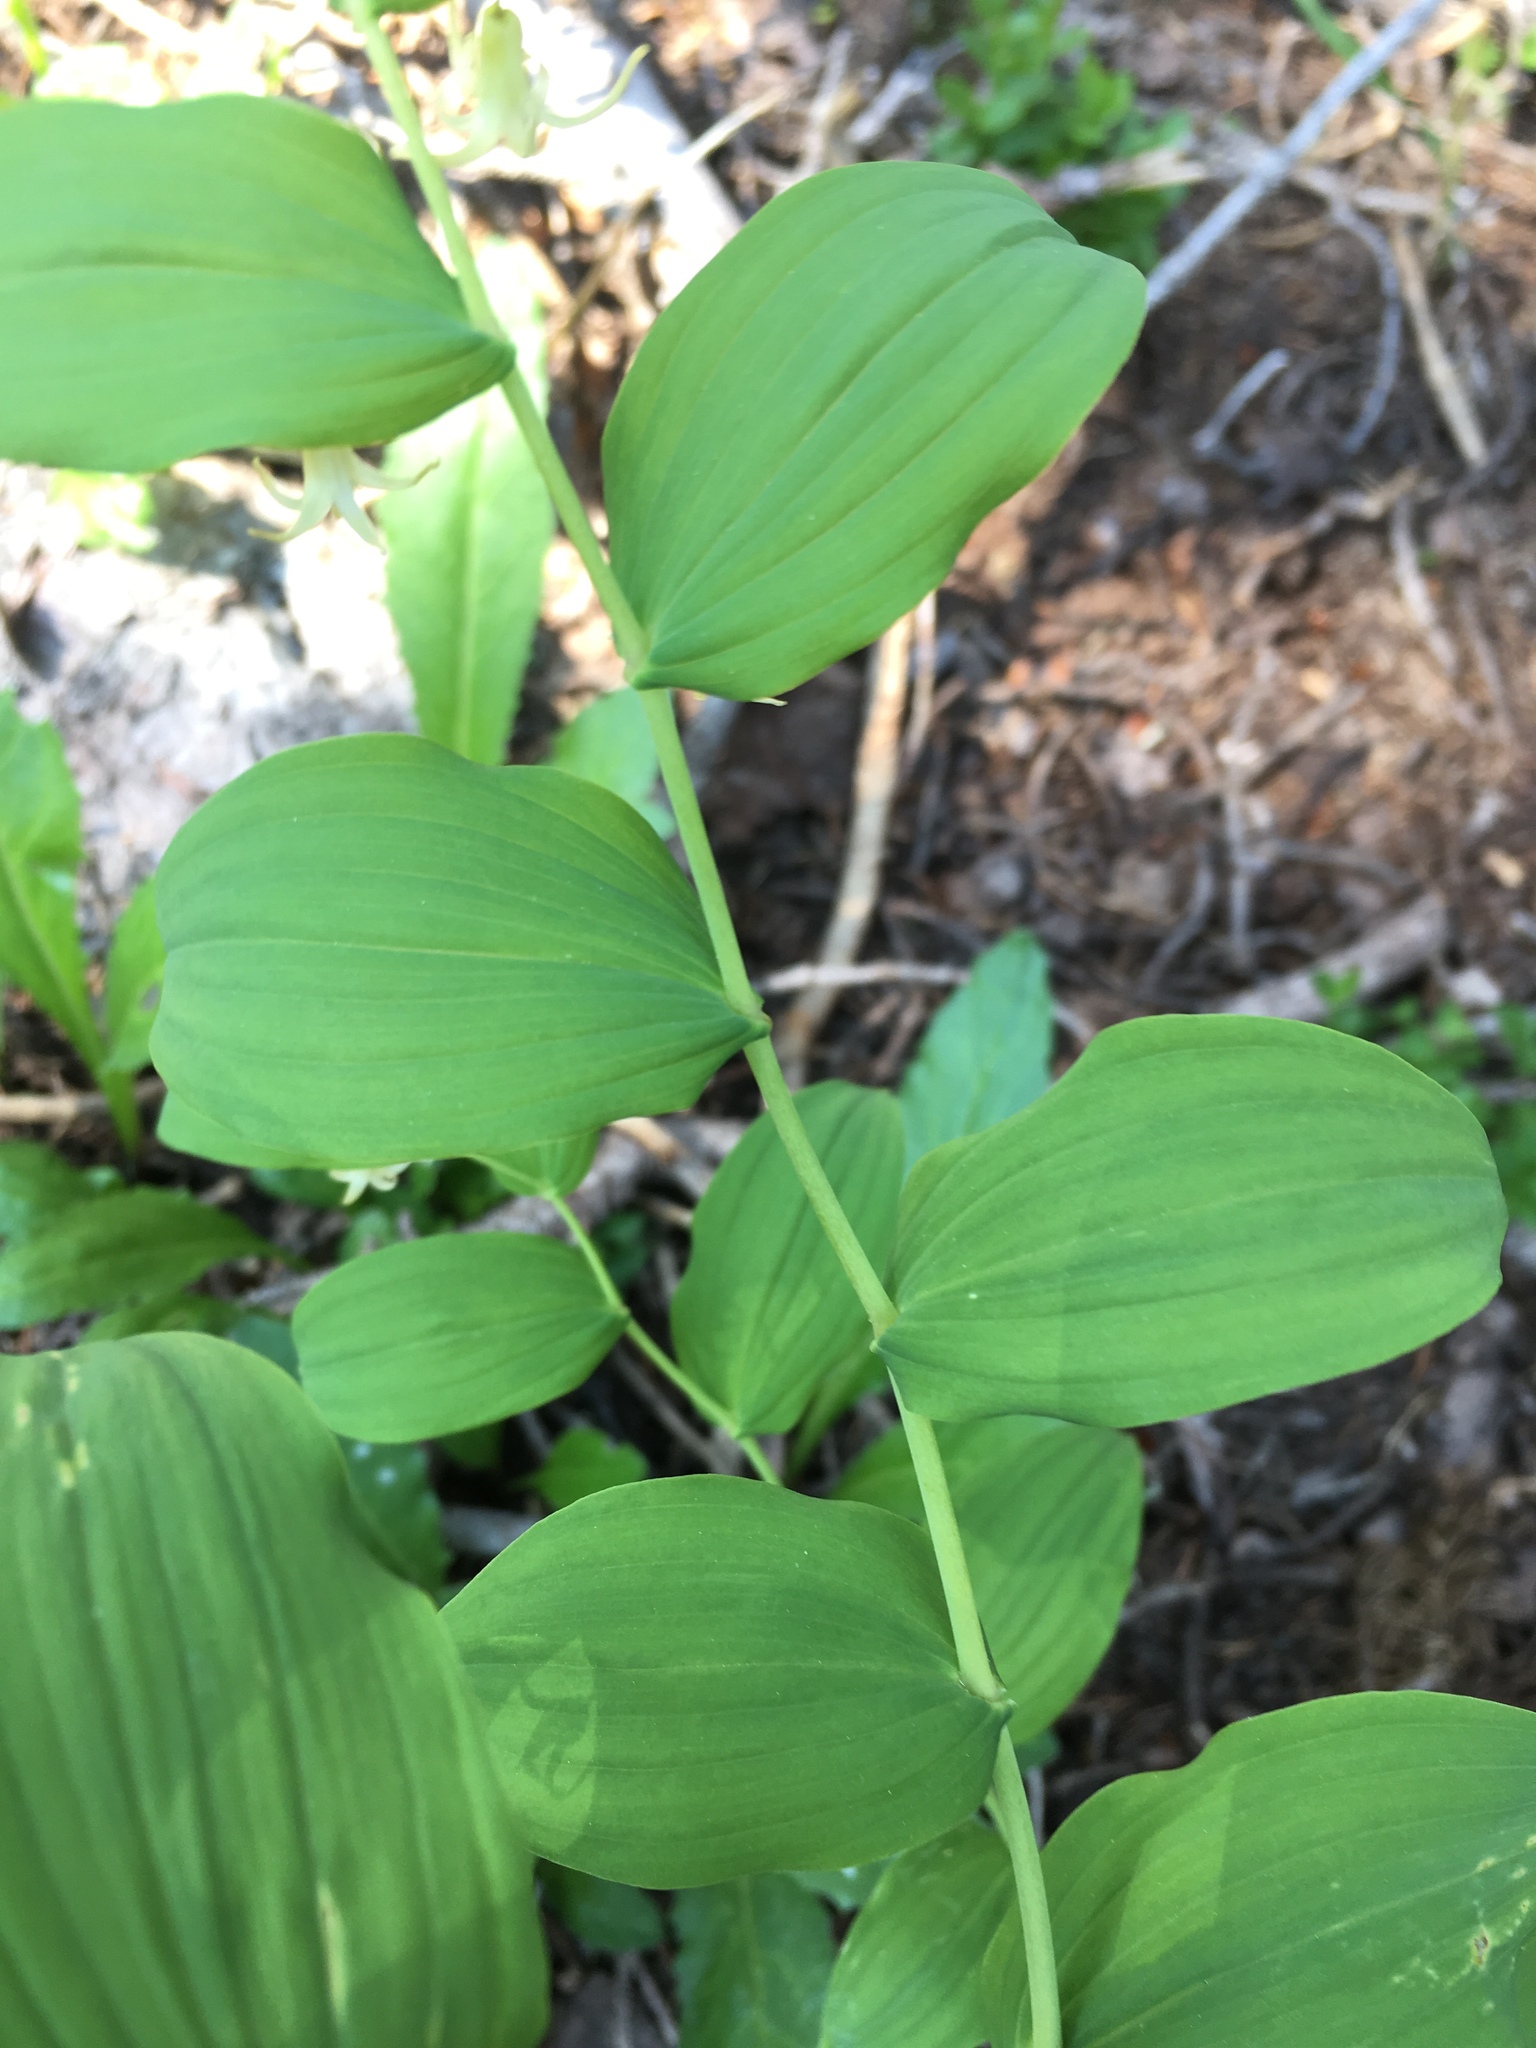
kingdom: Plantae
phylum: Tracheophyta
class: Liliopsida
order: Liliales
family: Liliaceae
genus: Streptopus
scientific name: Streptopus amplexifolius
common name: Clasp twisted stalk
